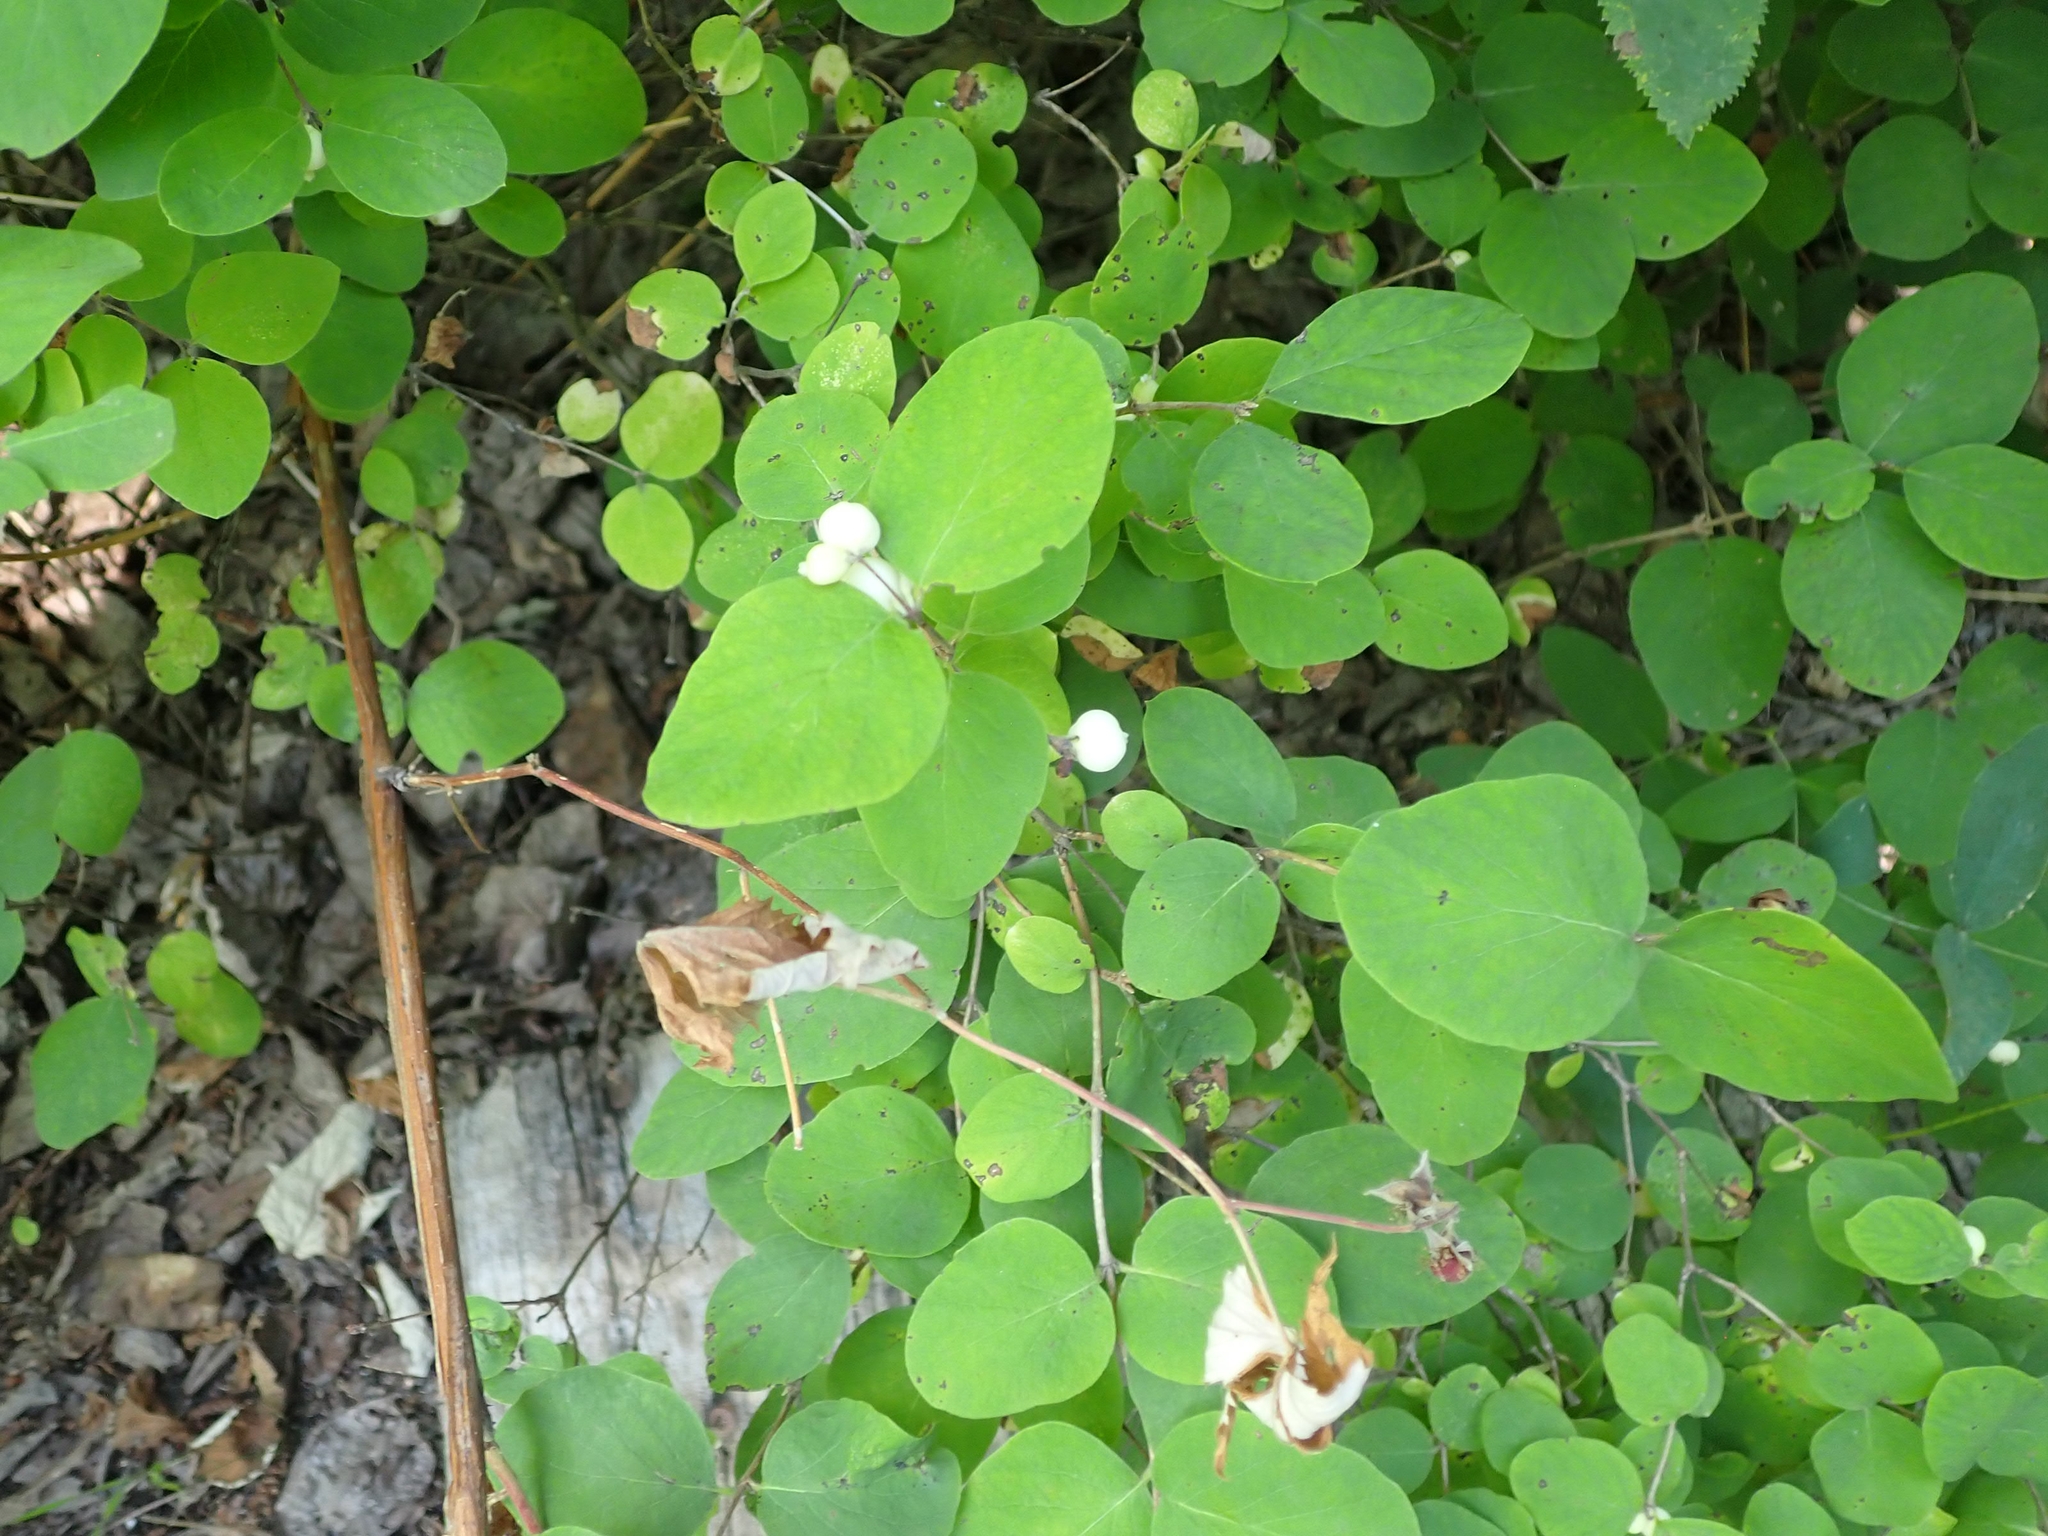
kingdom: Plantae
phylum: Tracheophyta
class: Magnoliopsida
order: Dipsacales
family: Caprifoliaceae
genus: Symphoricarpos
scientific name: Symphoricarpos albus
